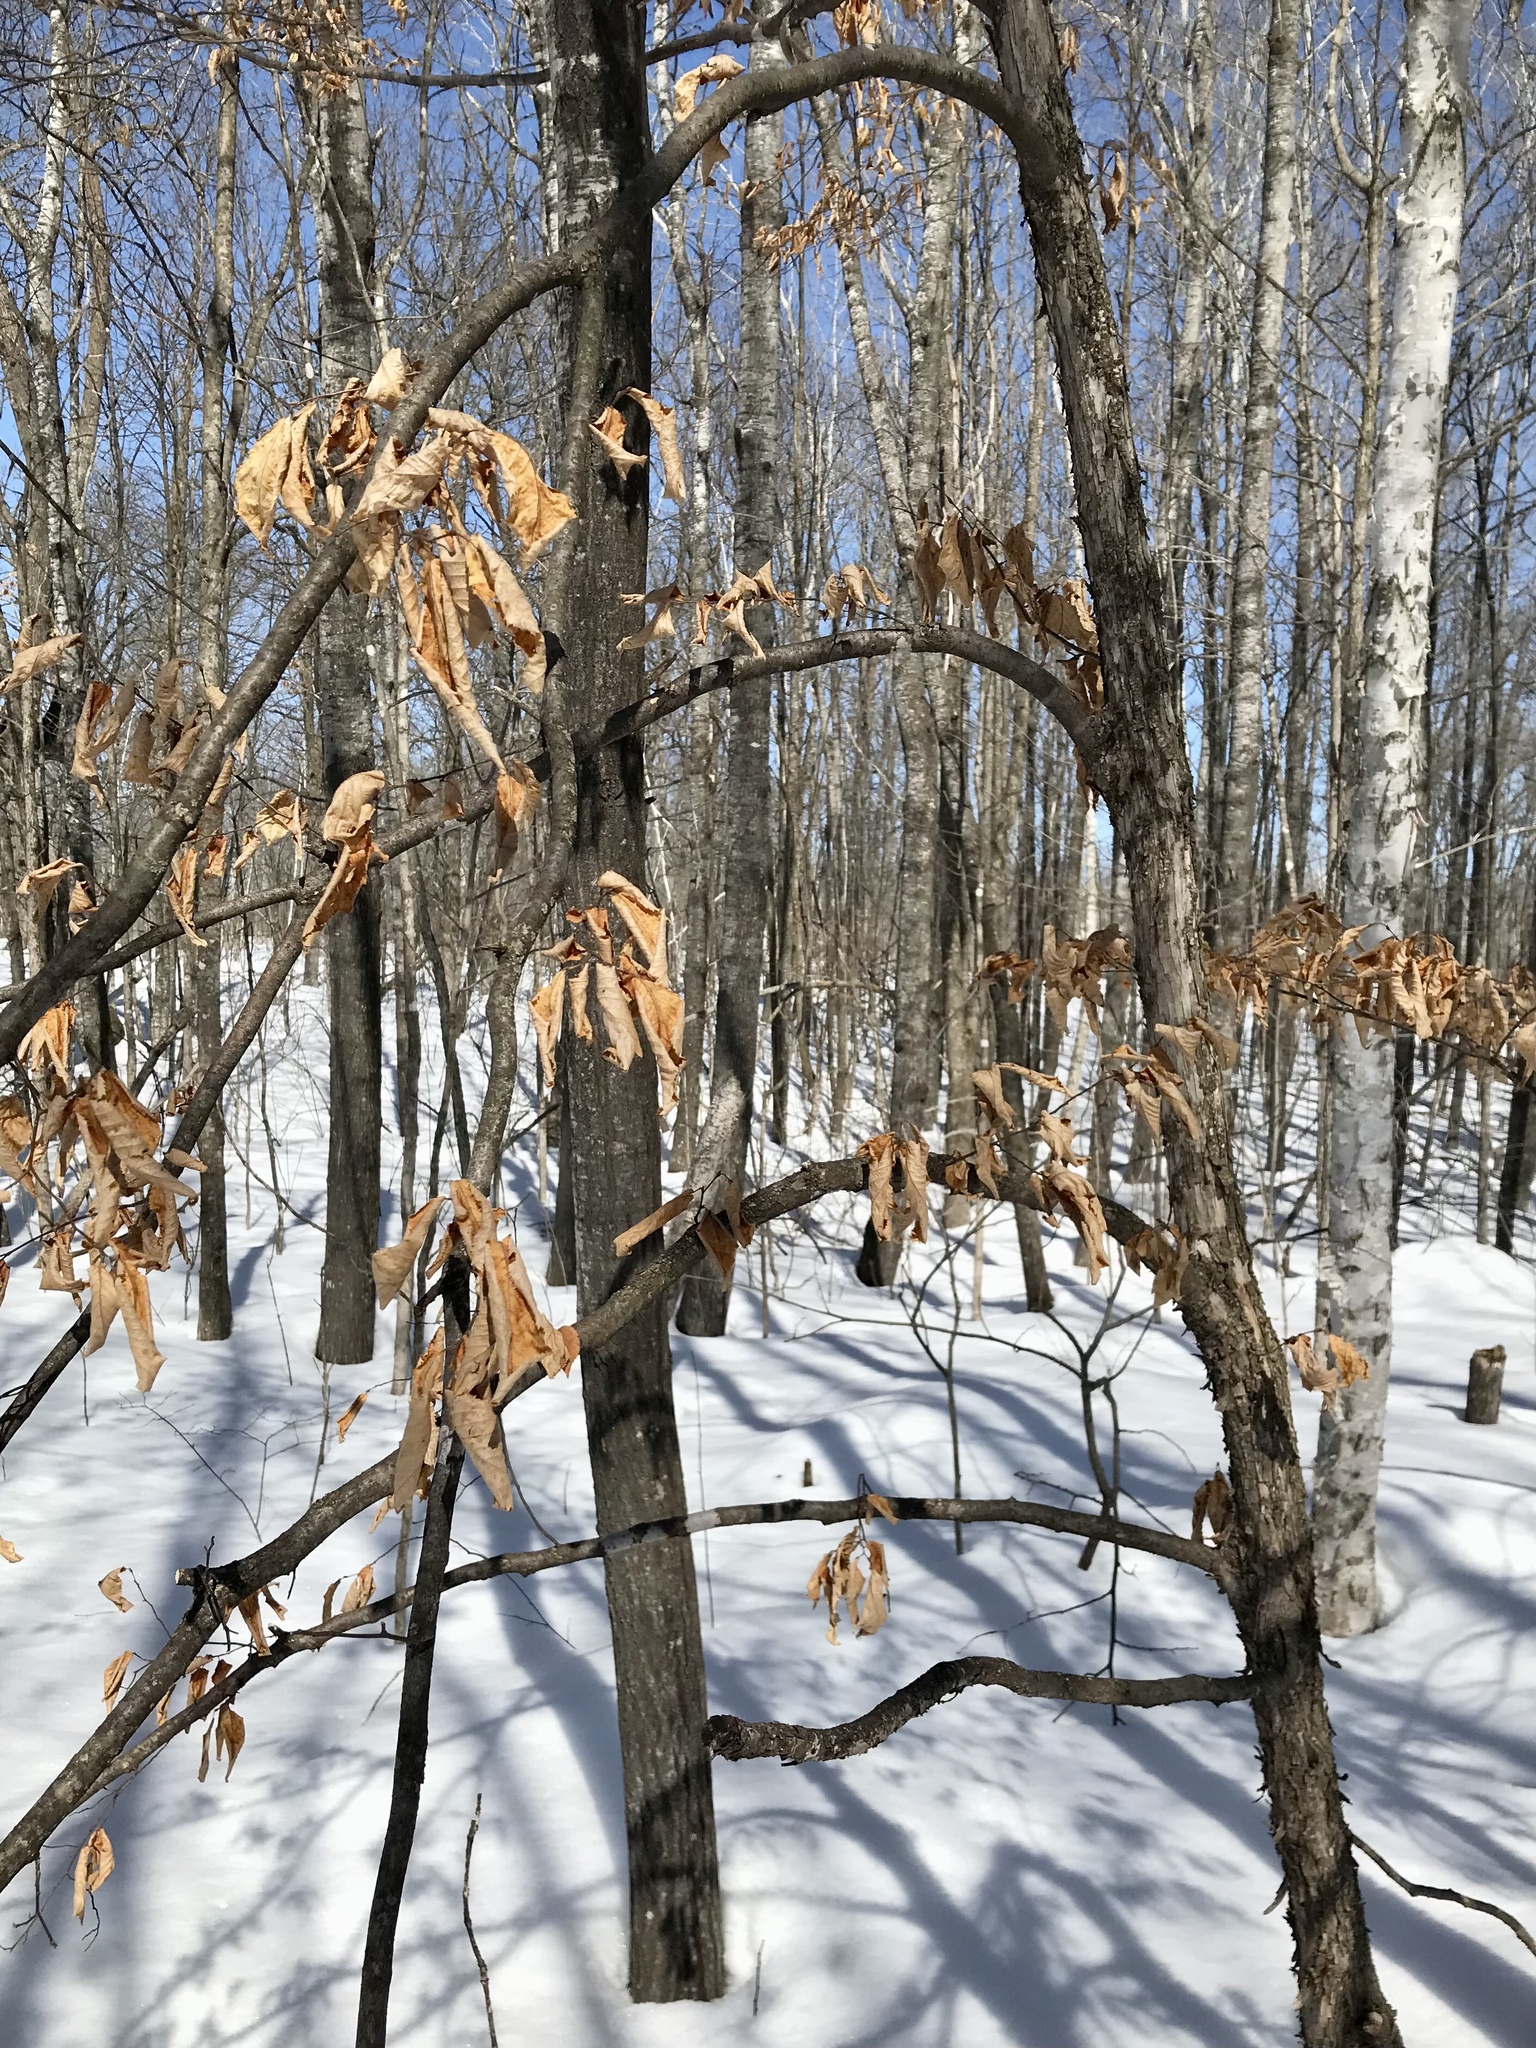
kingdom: Plantae
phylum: Tracheophyta
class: Magnoliopsida
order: Fagales
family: Betulaceae
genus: Ostrya
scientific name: Ostrya virginiana
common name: Ironwood
